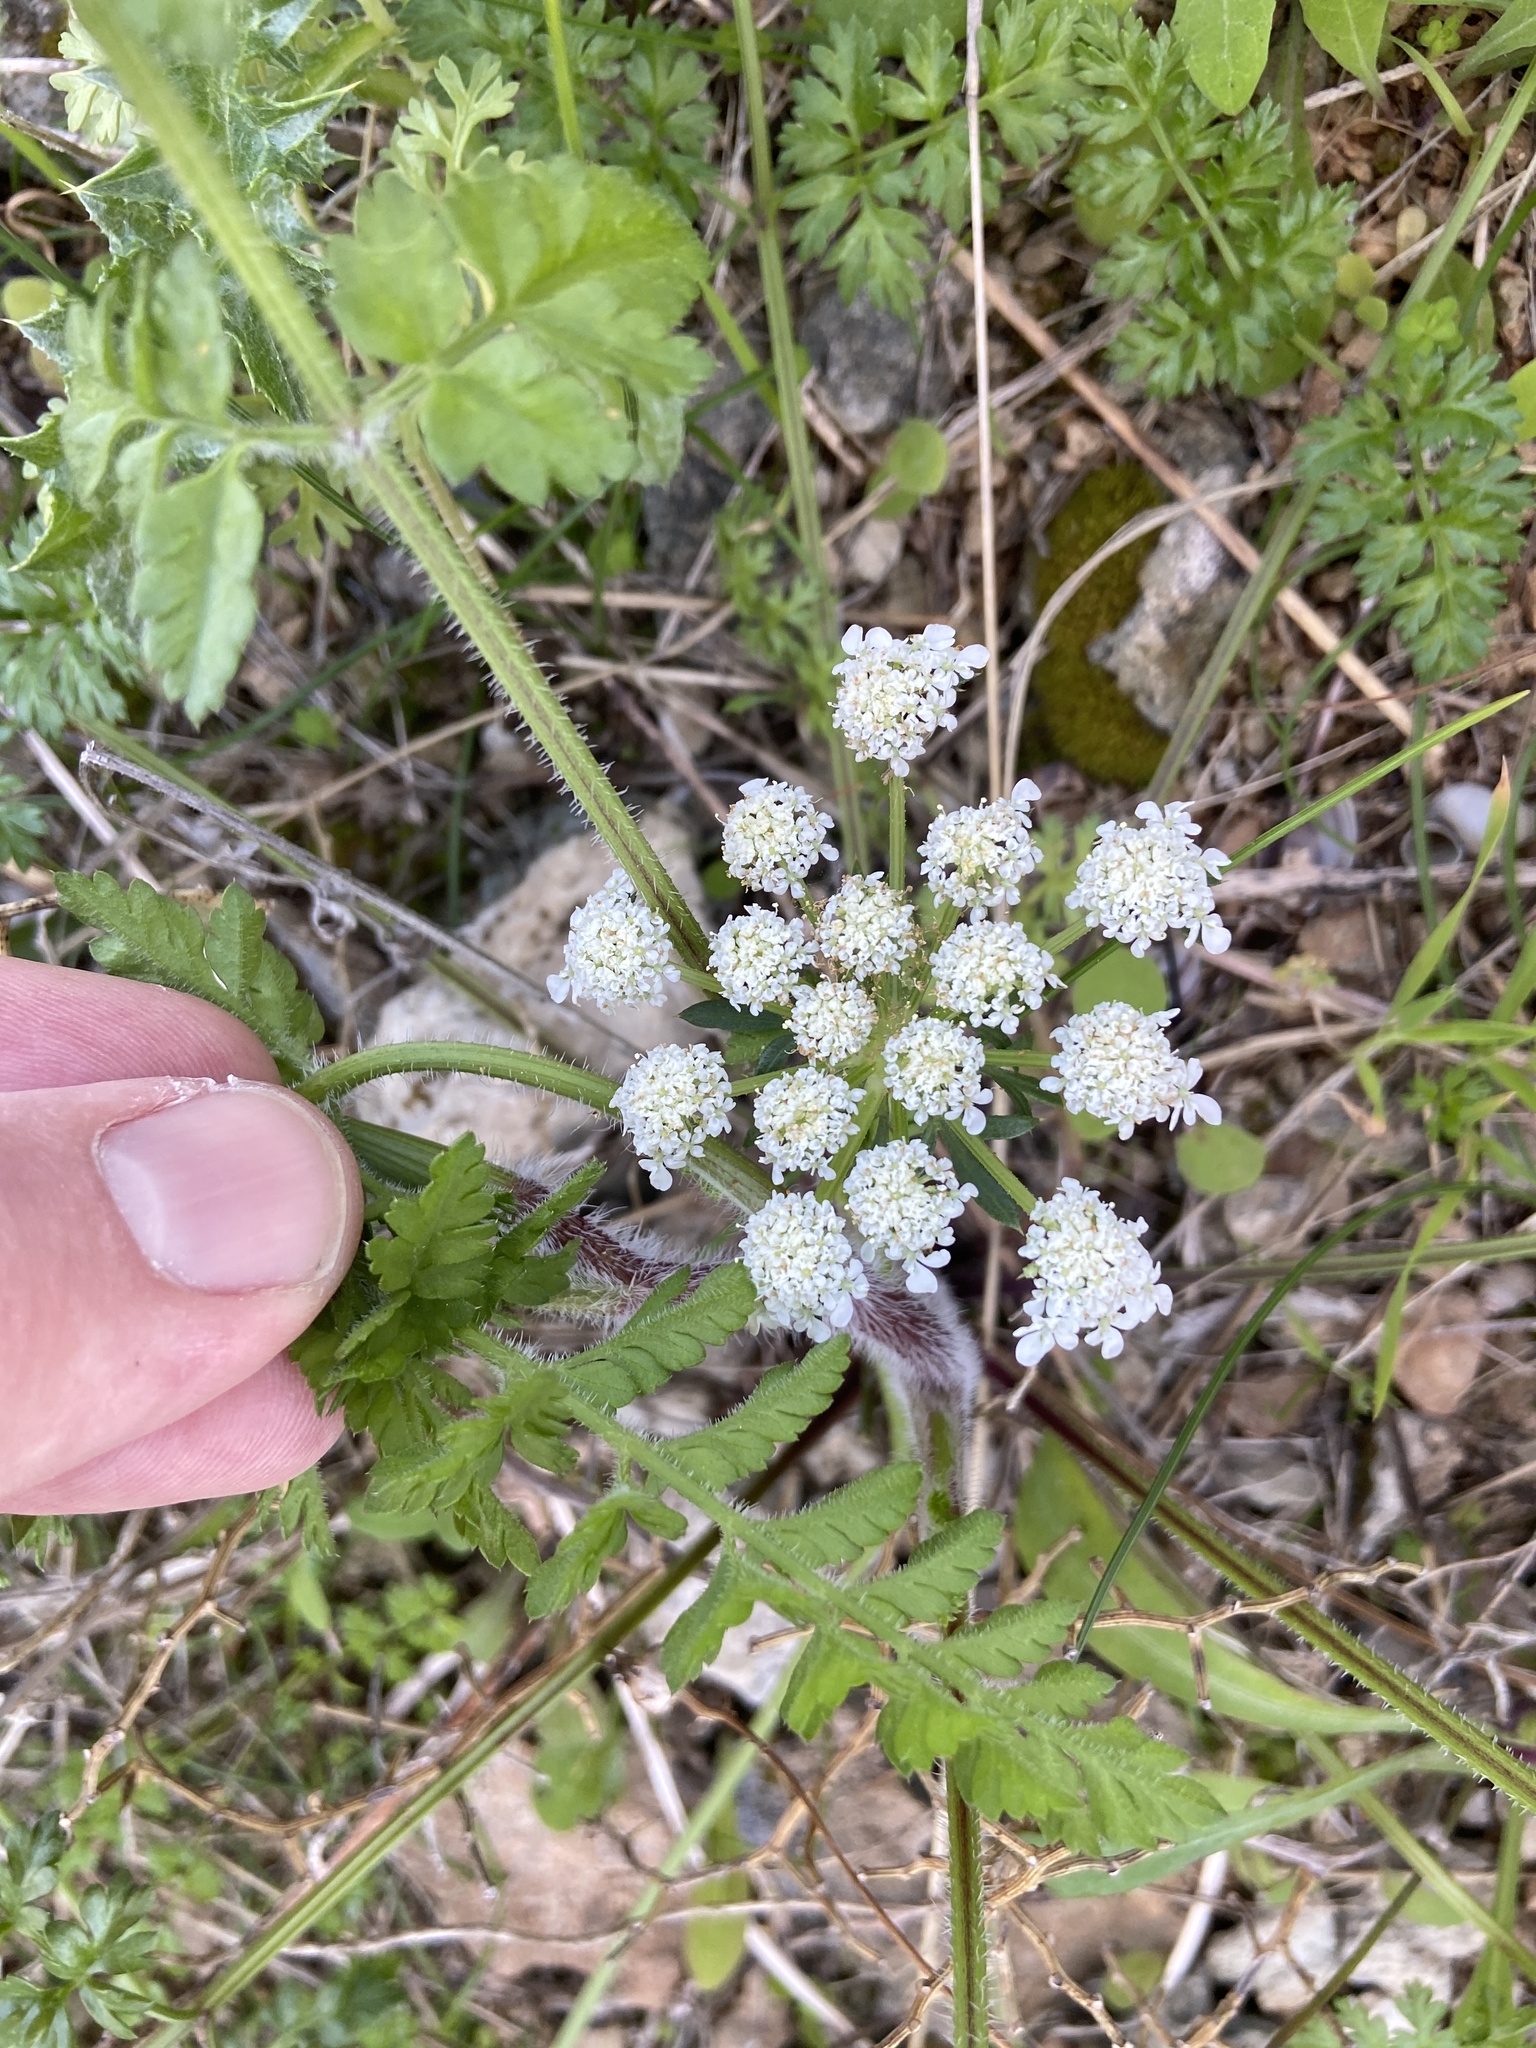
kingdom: Plantae
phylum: Tracheophyta
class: Magnoliopsida
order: Apiales
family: Apiaceae
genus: Daucus
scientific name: Daucus carota
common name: Wild carrot
